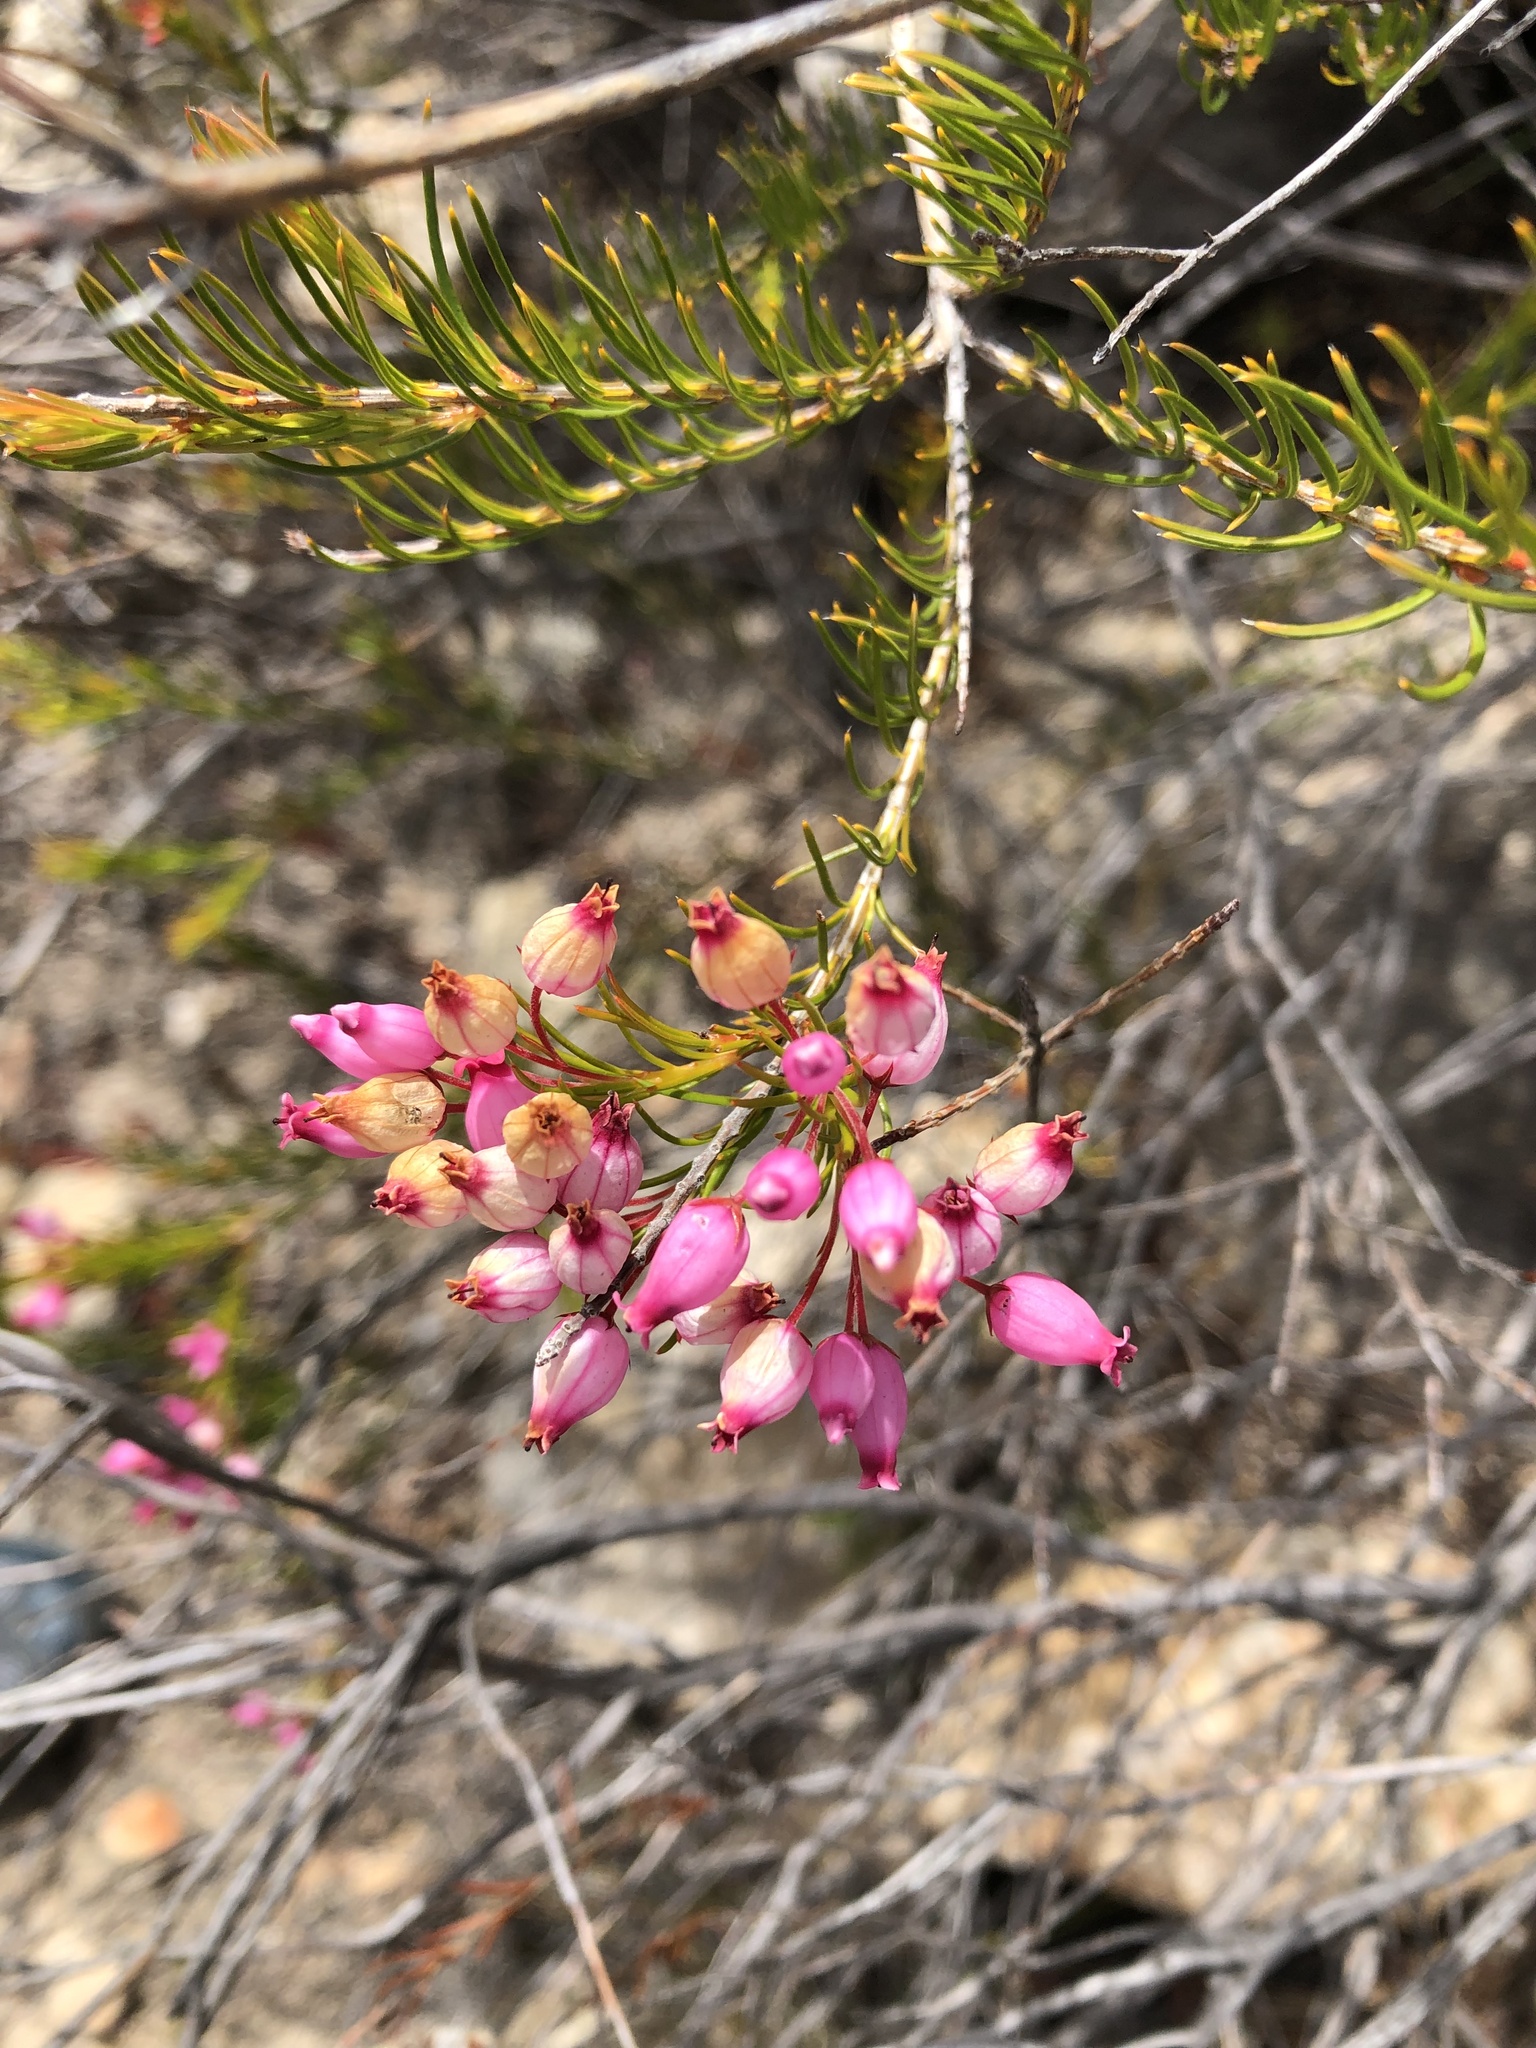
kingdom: Plantae
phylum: Tracheophyta
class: Magnoliopsida
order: Ericales
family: Ericaceae
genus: Erica
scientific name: Erica inflata
